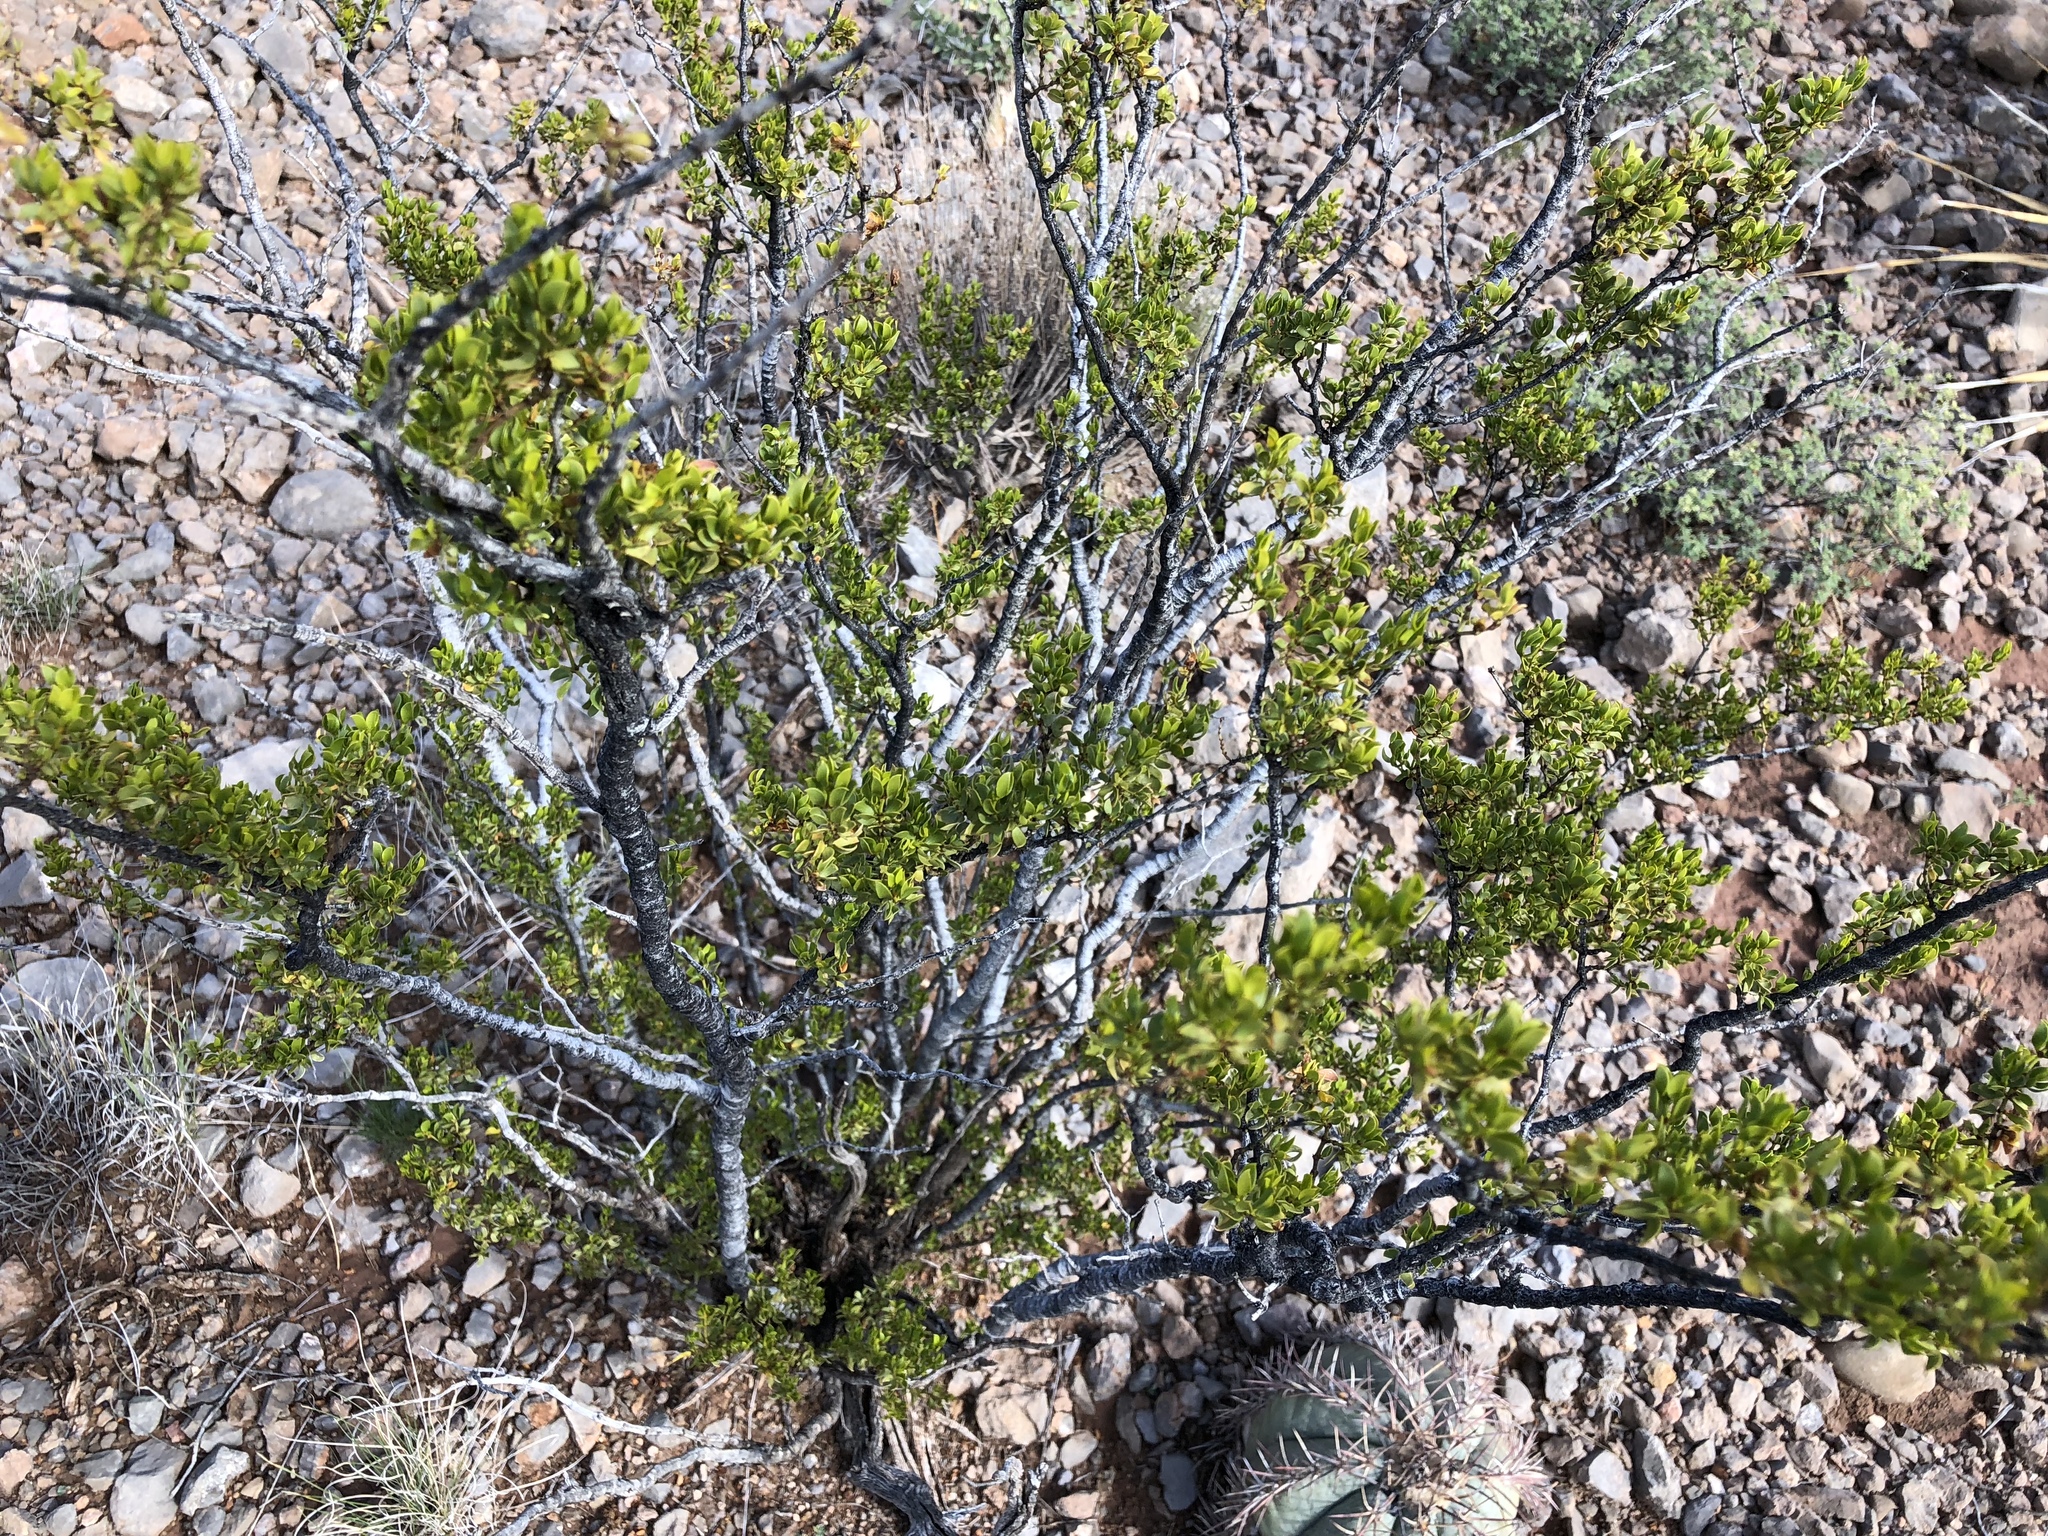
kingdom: Plantae
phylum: Tracheophyta
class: Magnoliopsida
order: Zygophyllales
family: Zygophyllaceae
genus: Larrea
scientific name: Larrea tridentata
